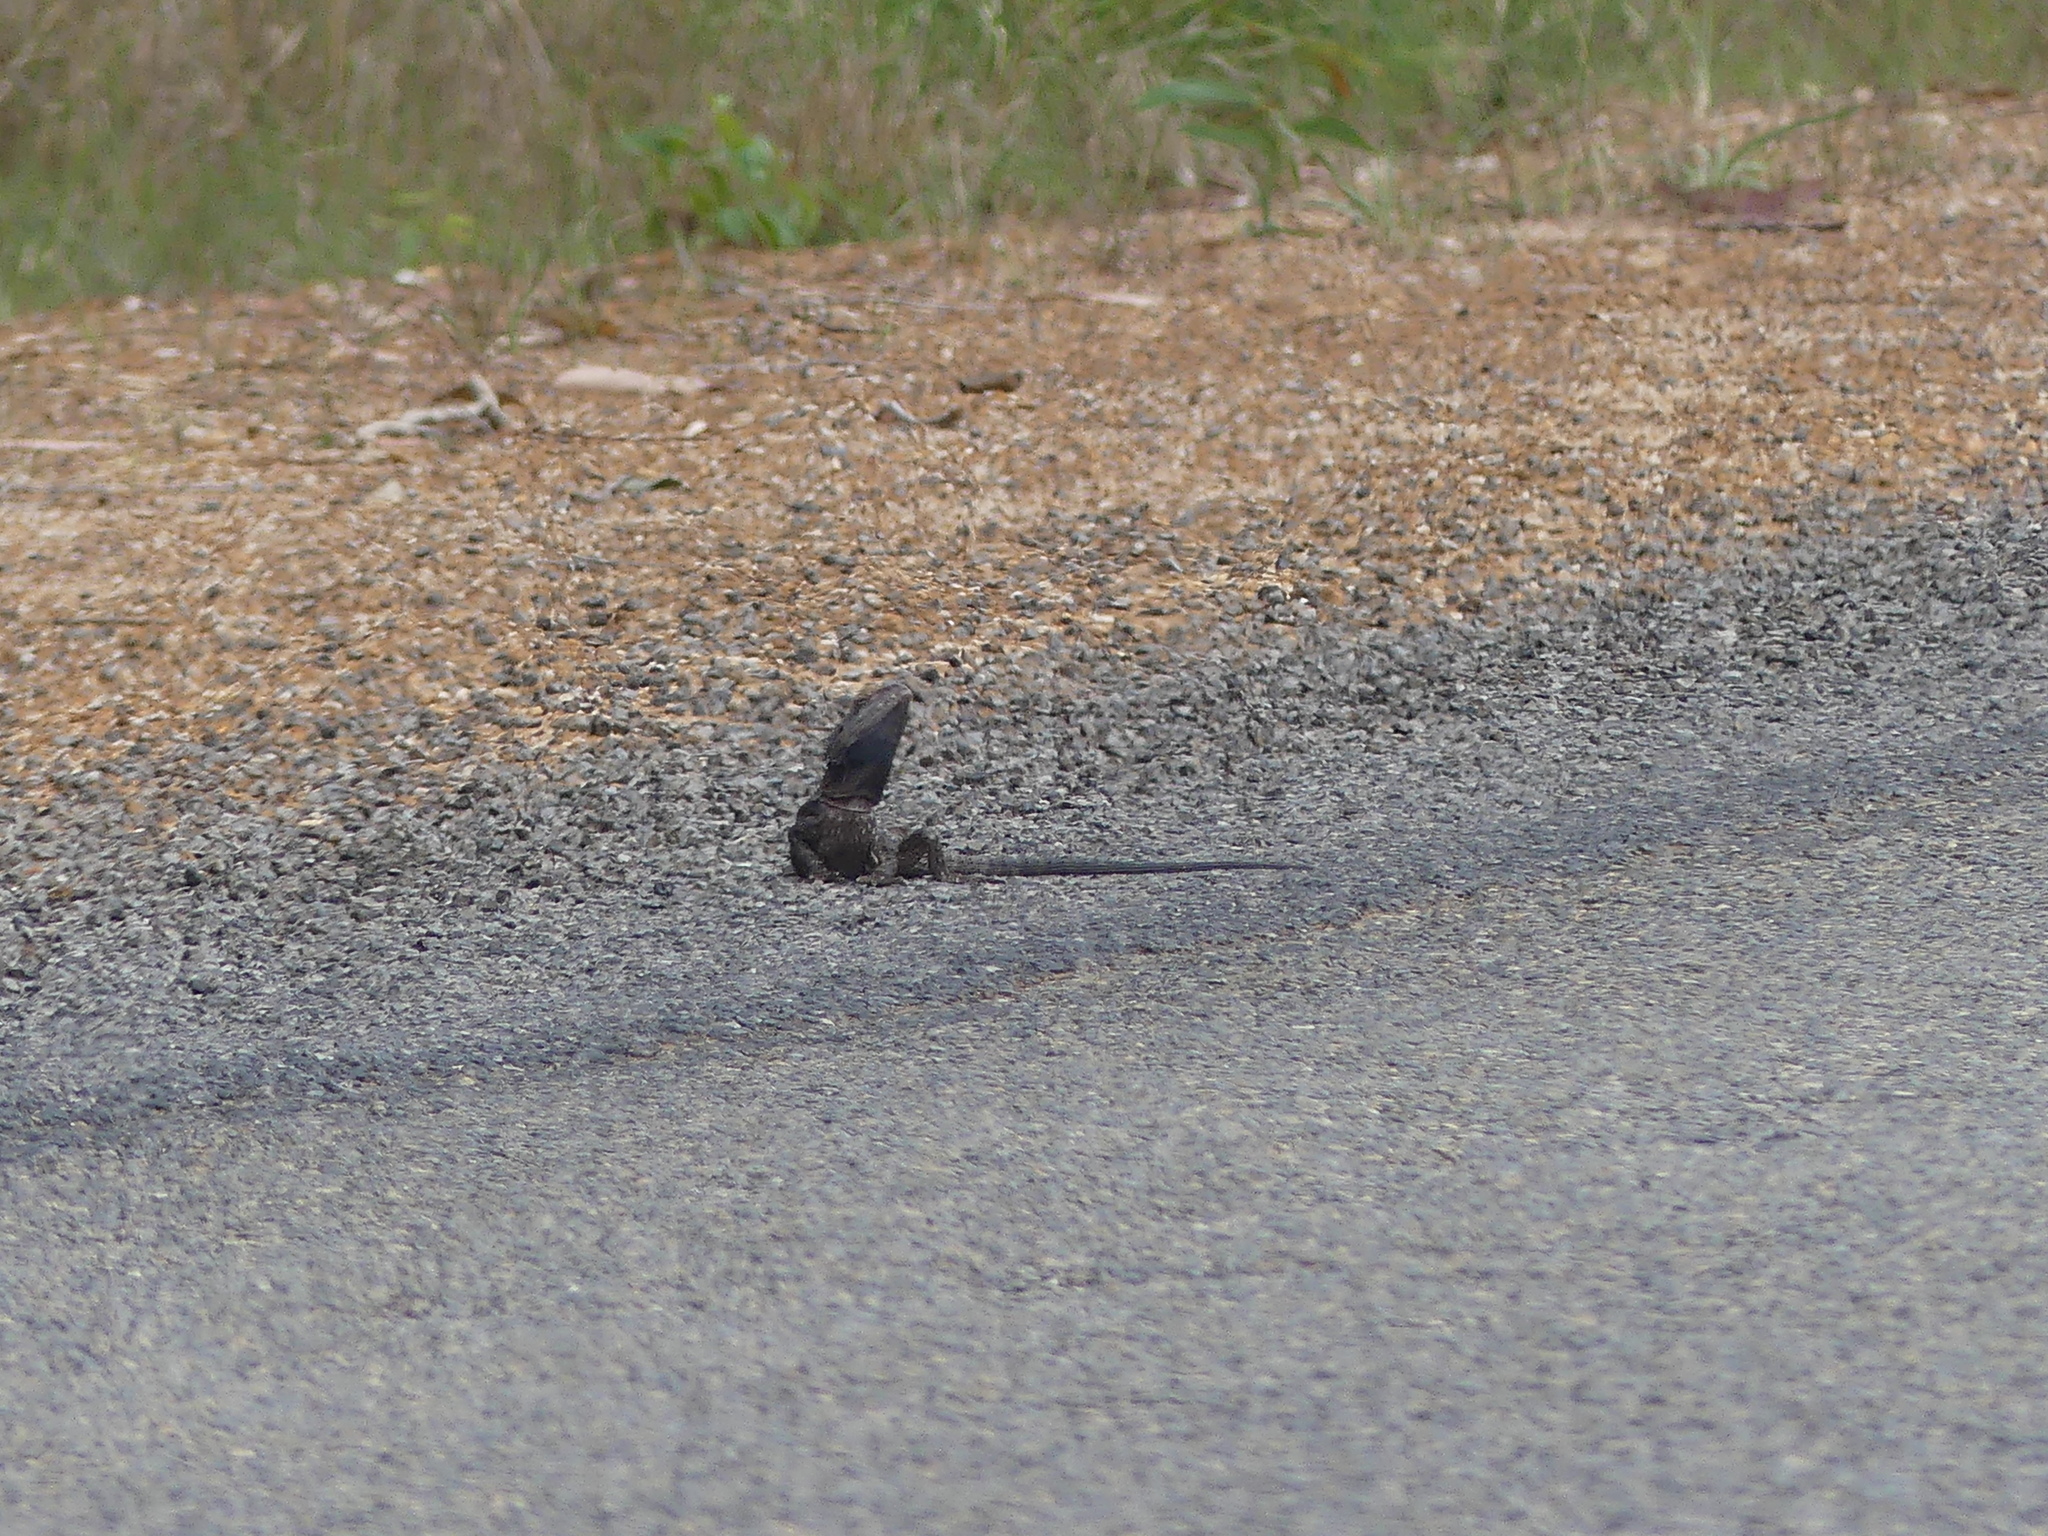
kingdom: Animalia
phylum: Chordata
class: Squamata
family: Agamidae
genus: Pogona
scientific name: Pogona barbata
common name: Bearded dragon
